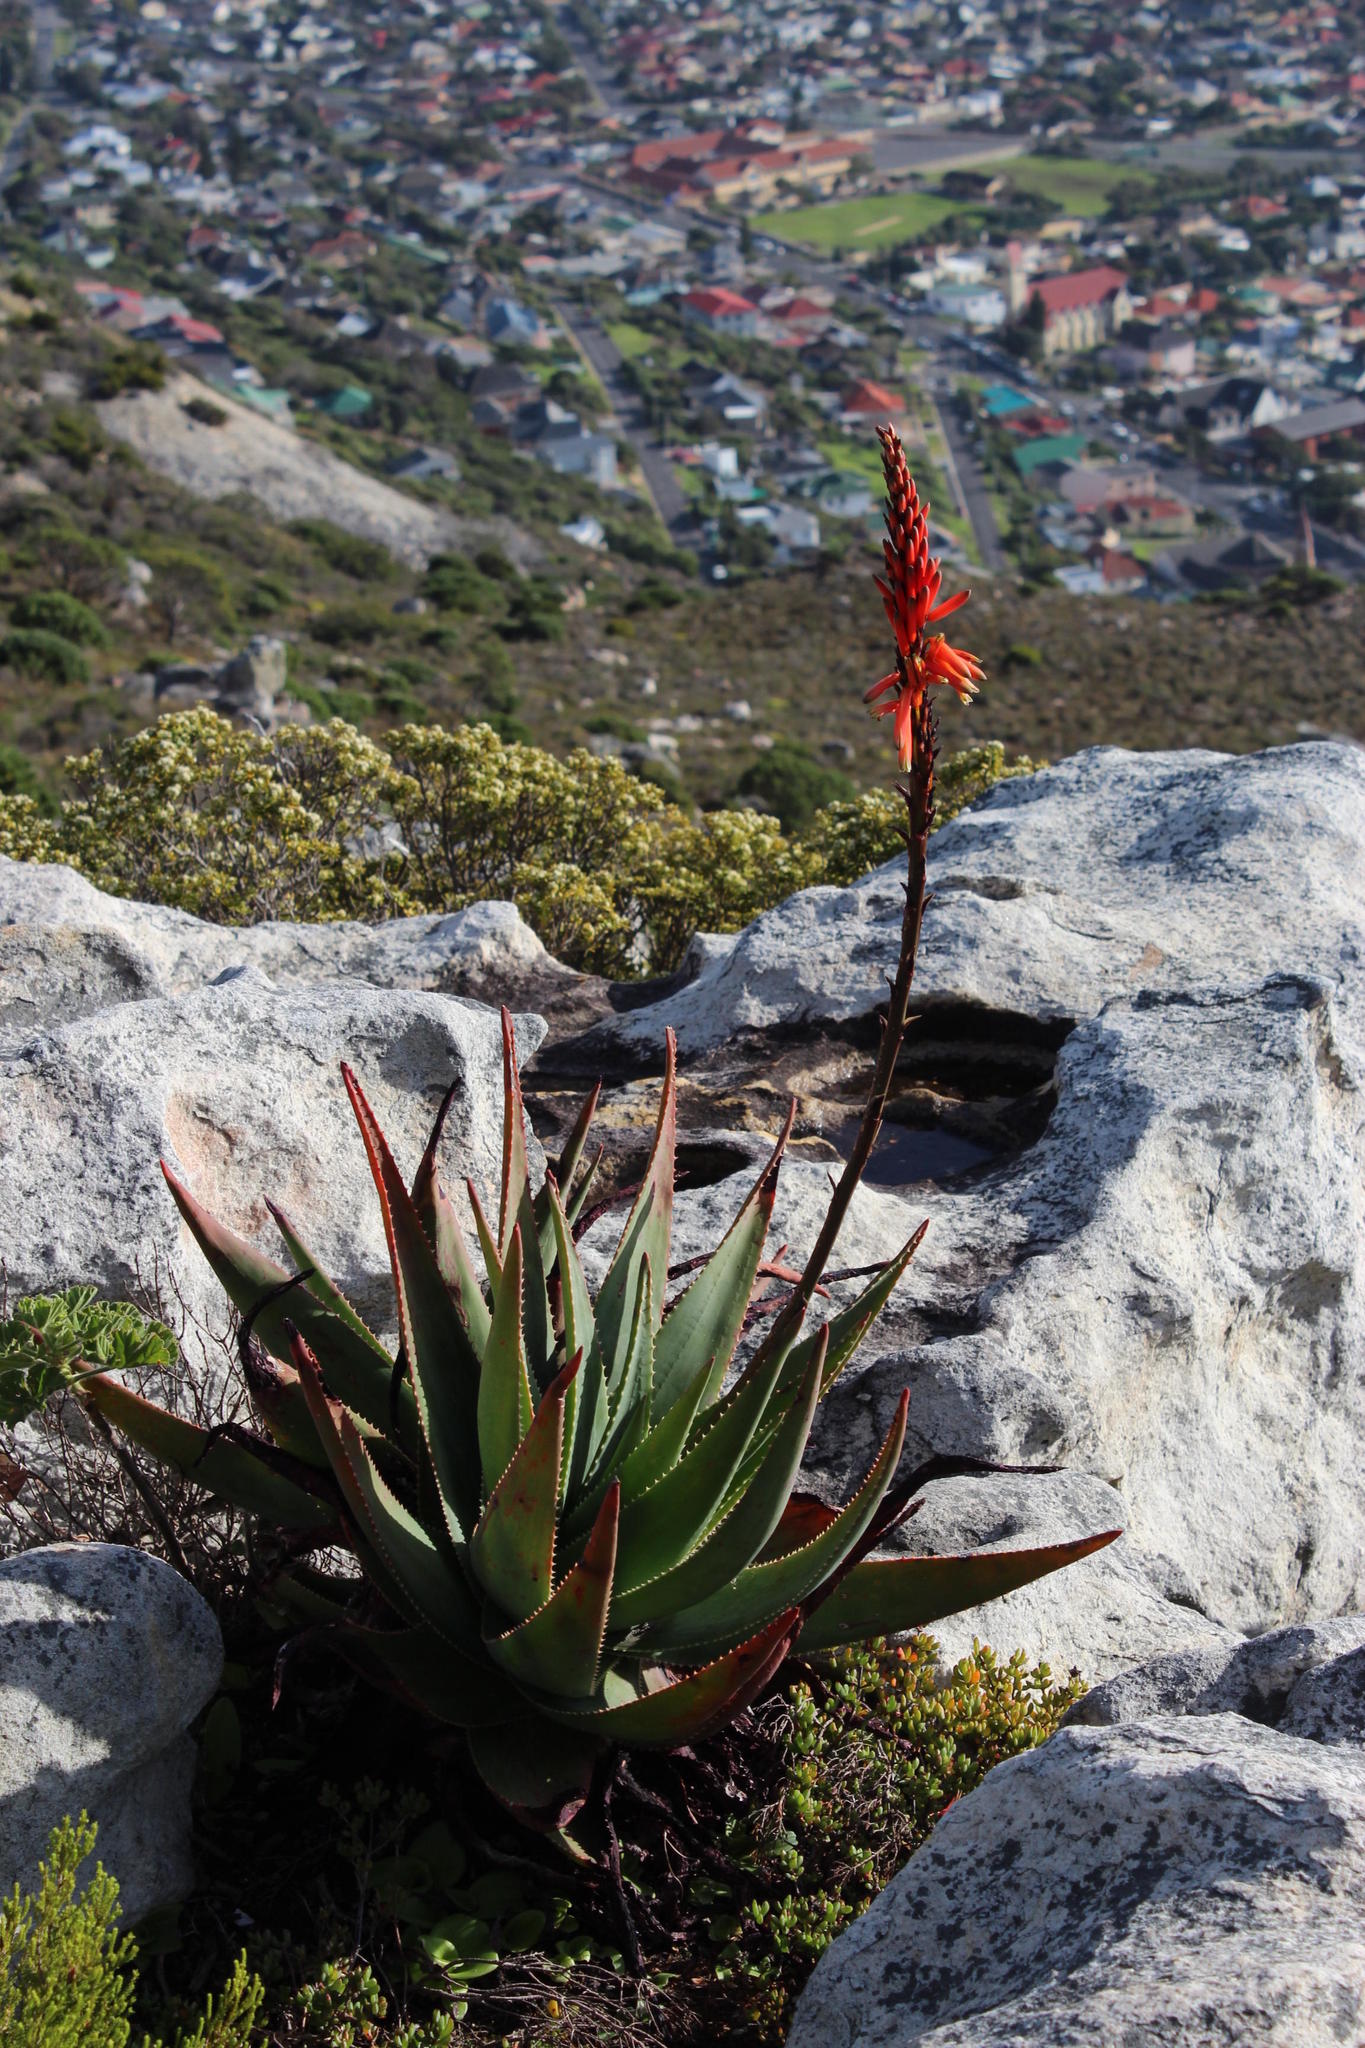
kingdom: Plantae
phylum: Tracheophyta
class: Liliopsida
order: Asparagales
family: Asphodelaceae
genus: Aloe
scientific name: Aloe succotrina
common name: Bombay aloe
